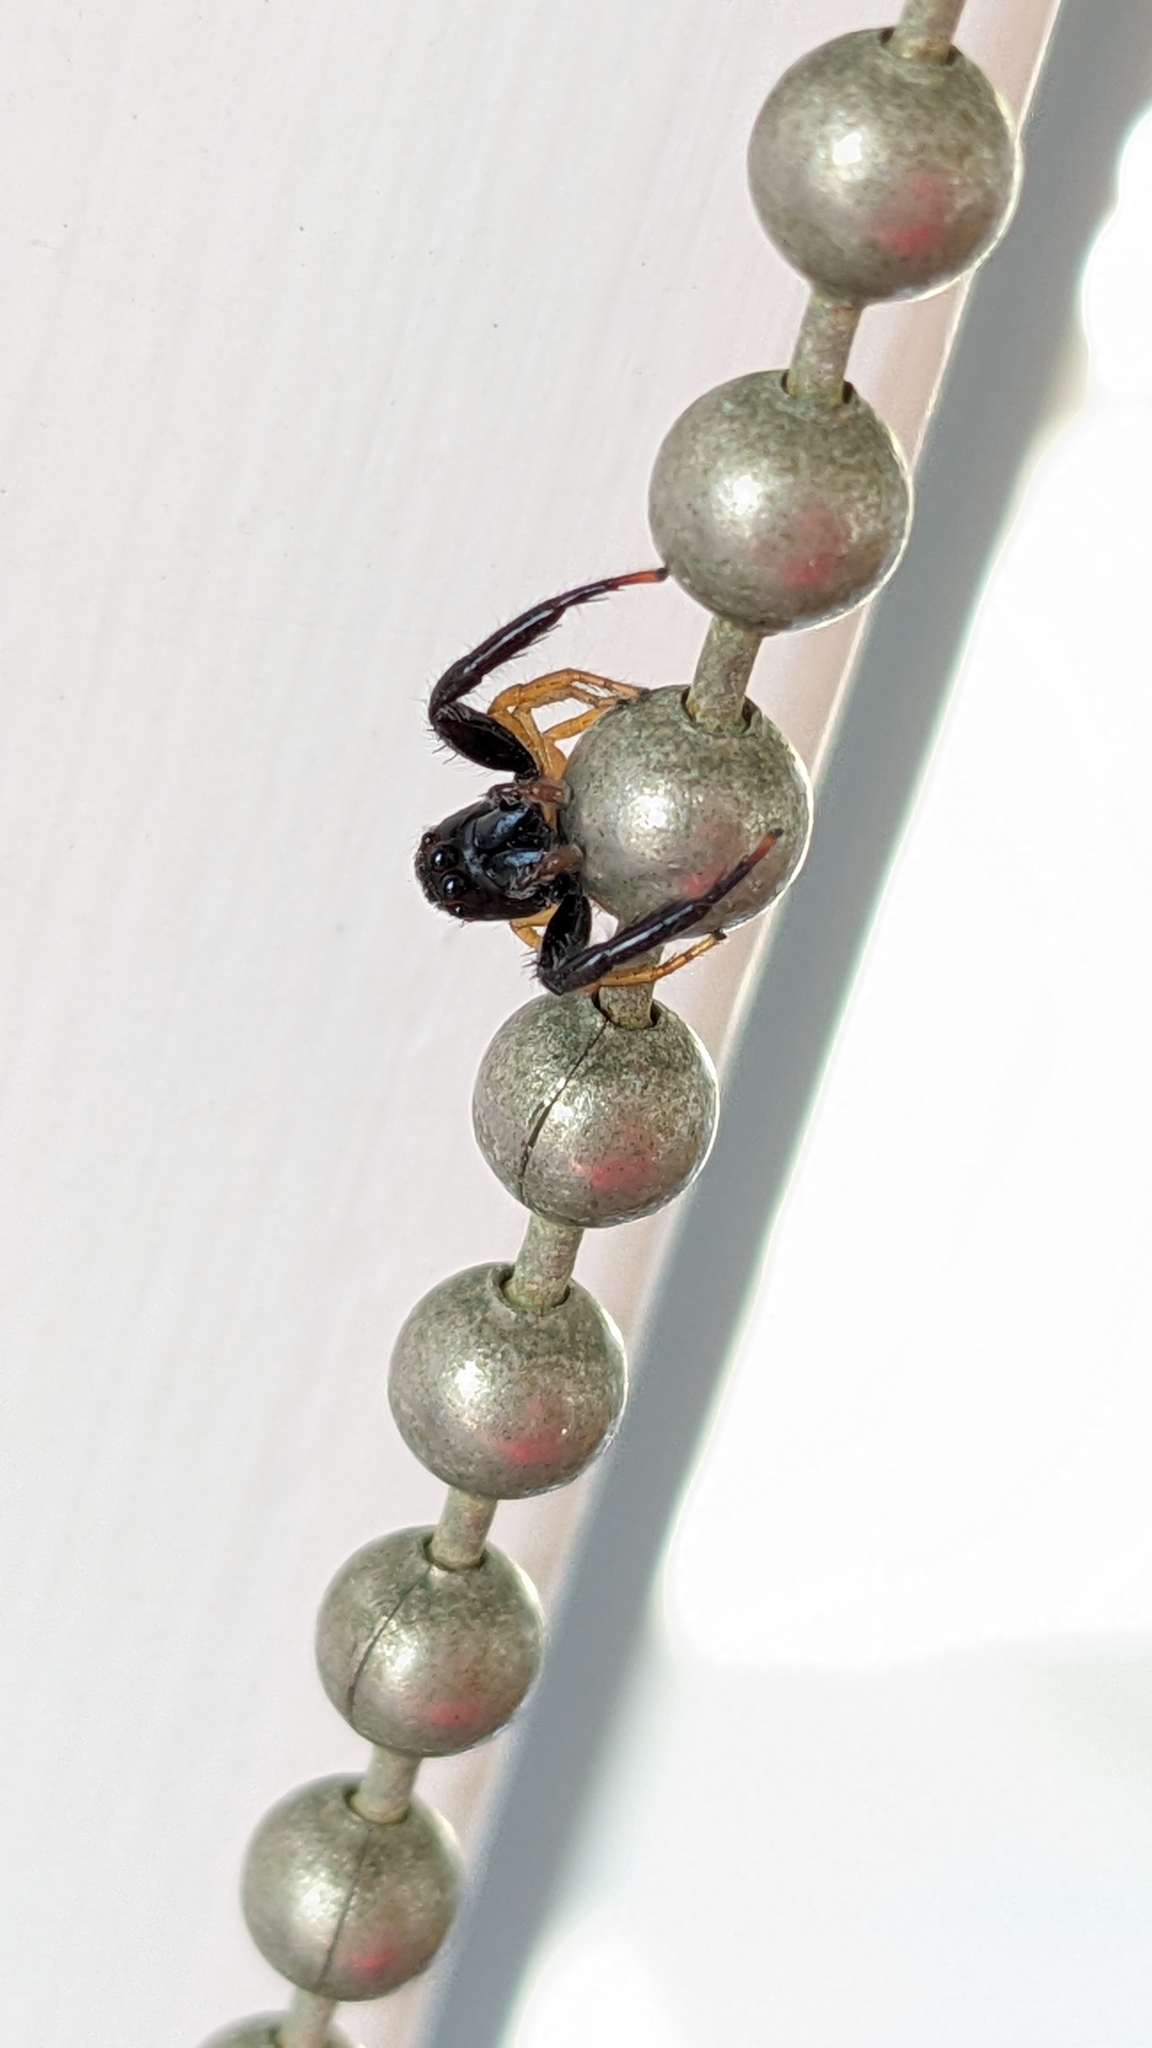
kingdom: Animalia
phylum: Arthropoda
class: Arachnida
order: Araneae
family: Salticidae
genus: Trite
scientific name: Trite planiceps
